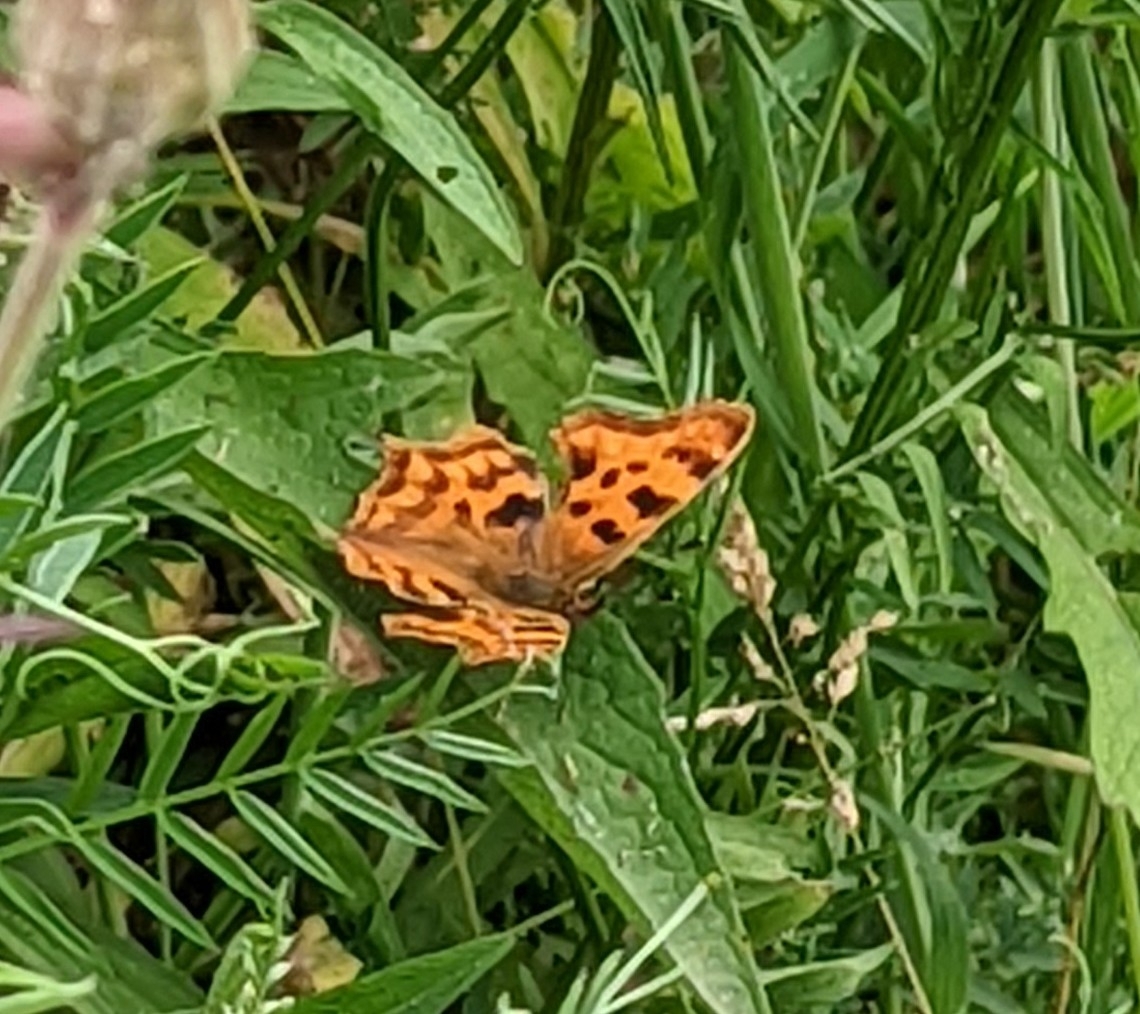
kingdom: Animalia
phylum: Arthropoda
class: Insecta
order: Lepidoptera
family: Nymphalidae
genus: Polygonia
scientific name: Polygonia c-album
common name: Comma
